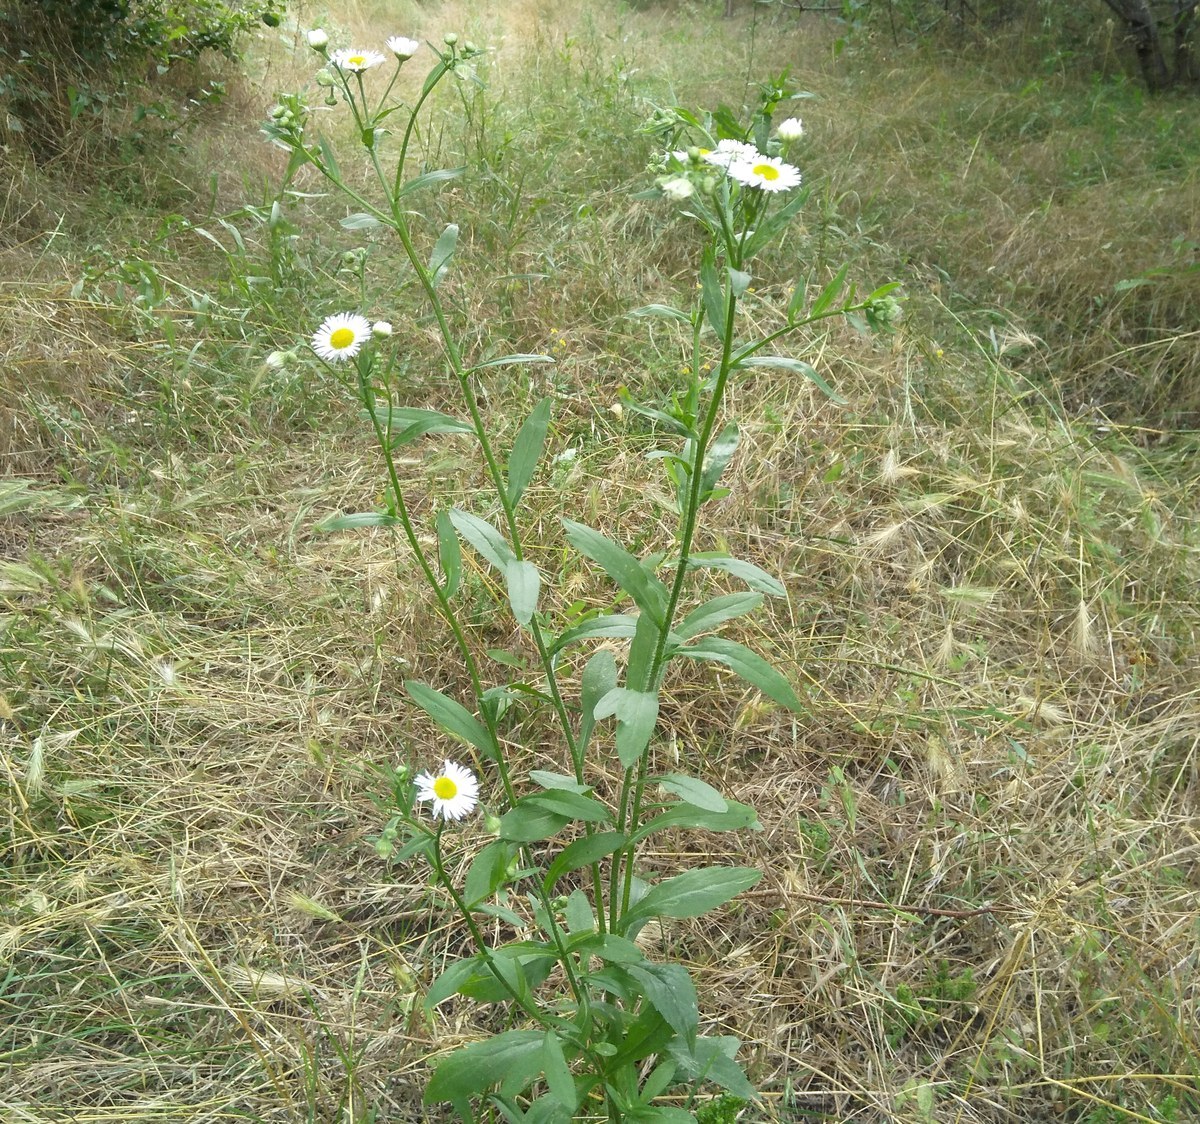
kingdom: Plantae
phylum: Tracheophyta
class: Magnoliopsida
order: Asterales
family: Asteraceae
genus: Erigeron
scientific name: Erigeron annuus
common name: Tall fleabane
